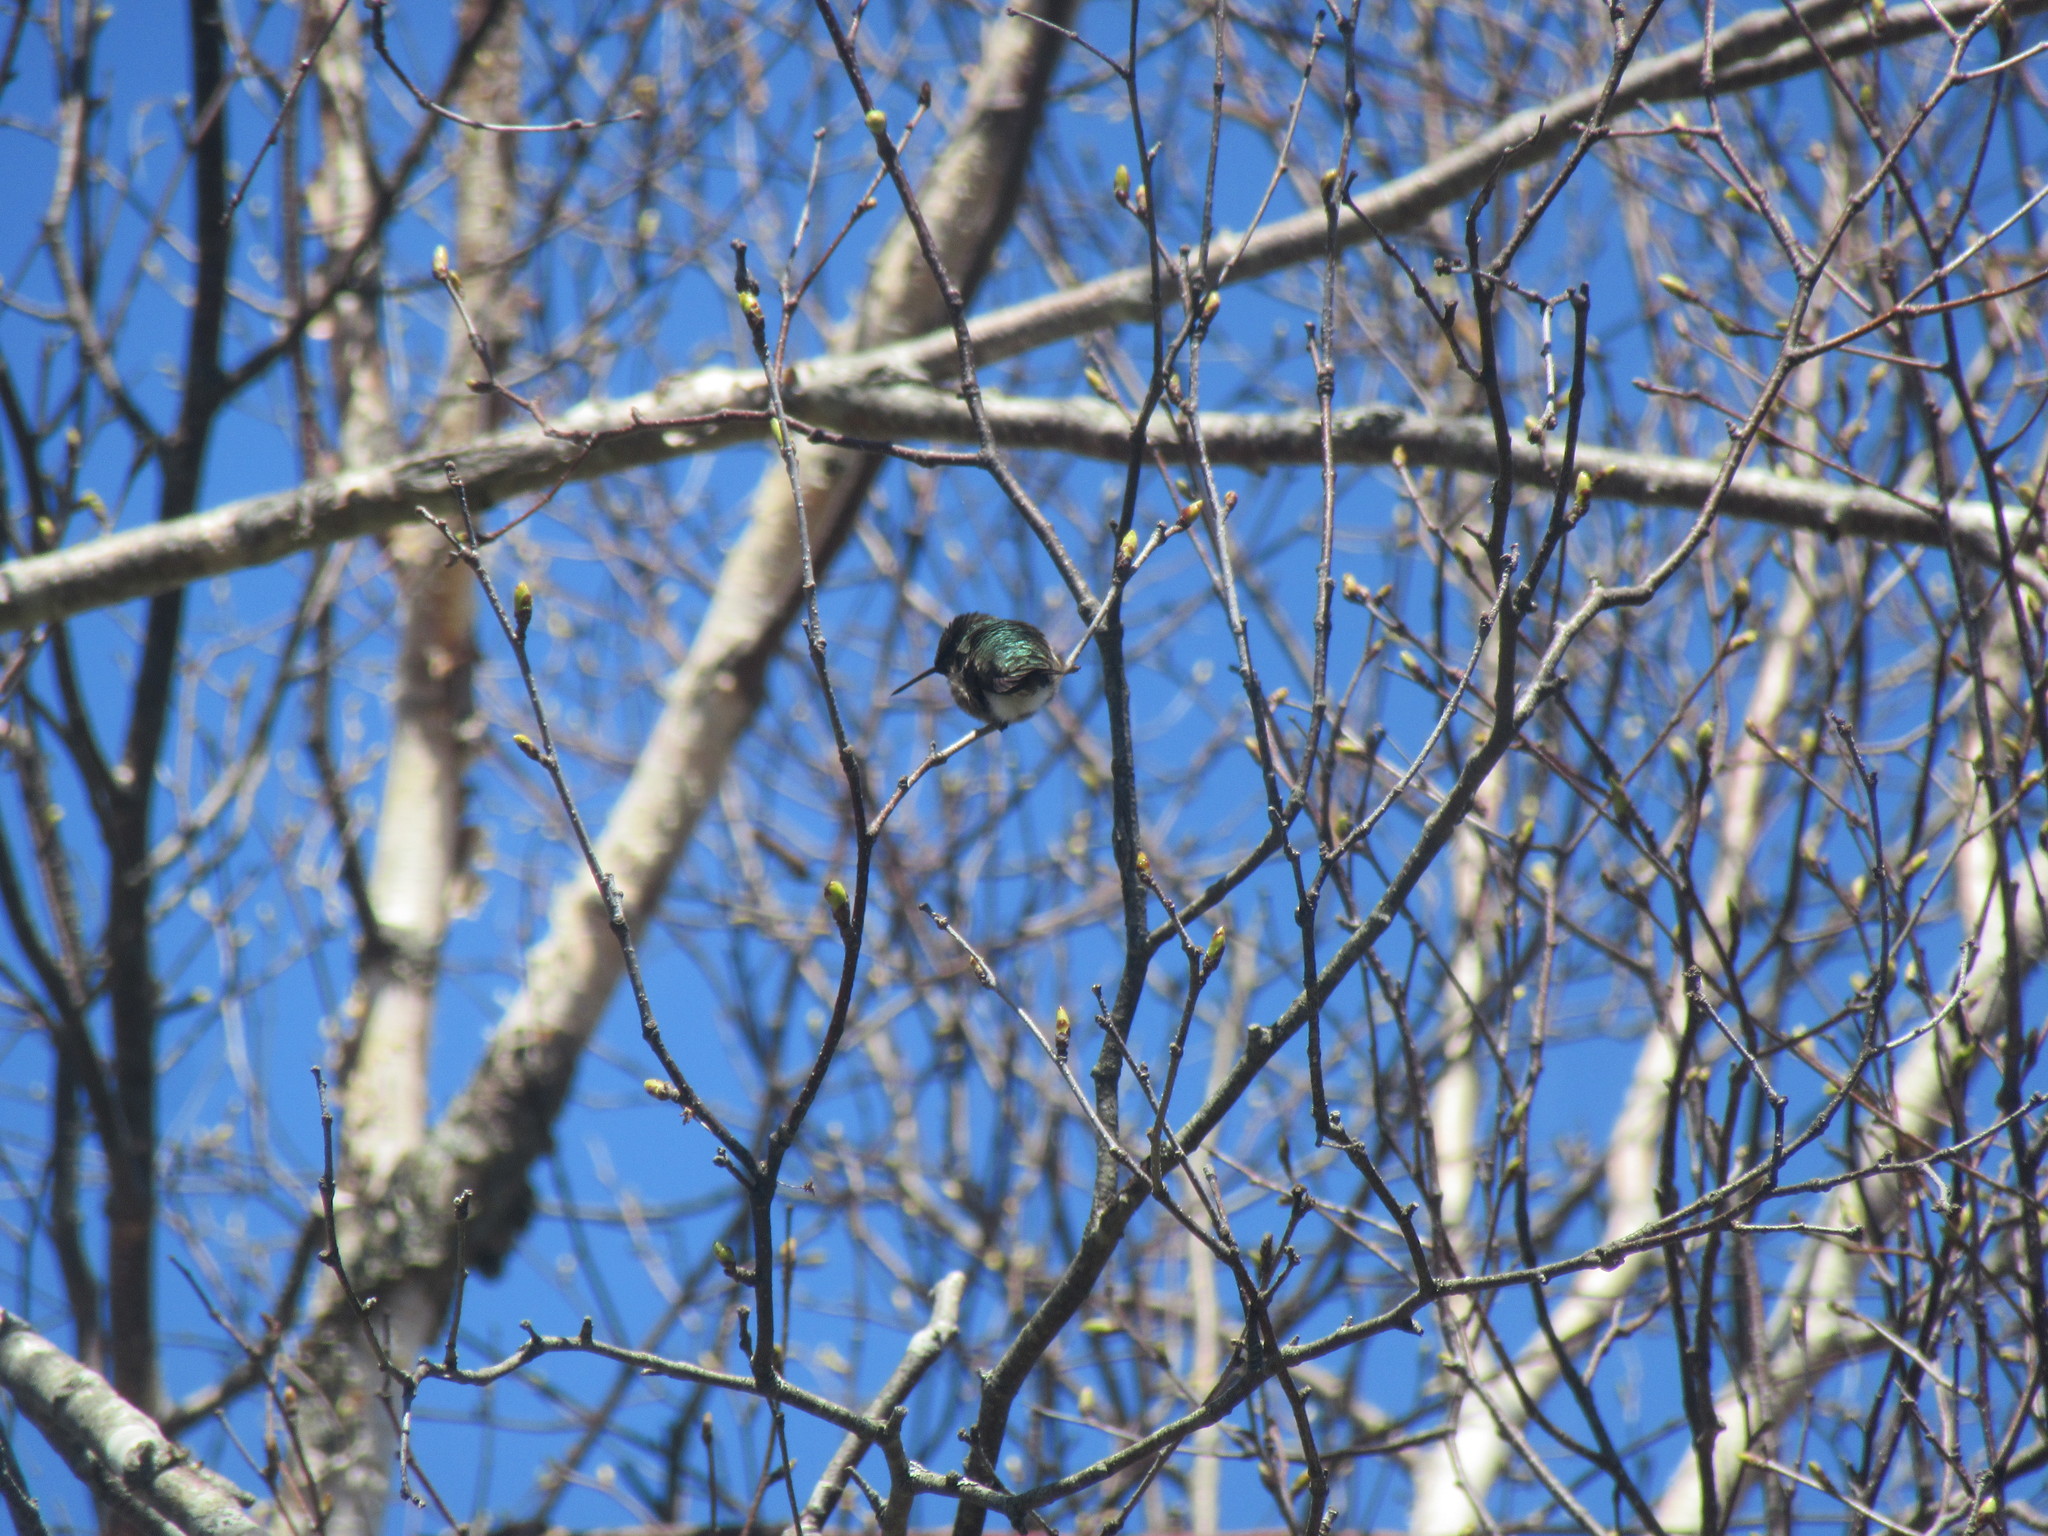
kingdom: Animalia
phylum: Chordata
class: Aves
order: Apodiformes
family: Trochilidae
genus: Archilochus
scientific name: Archilochus colubris
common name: Ruby-throated hummingbird
